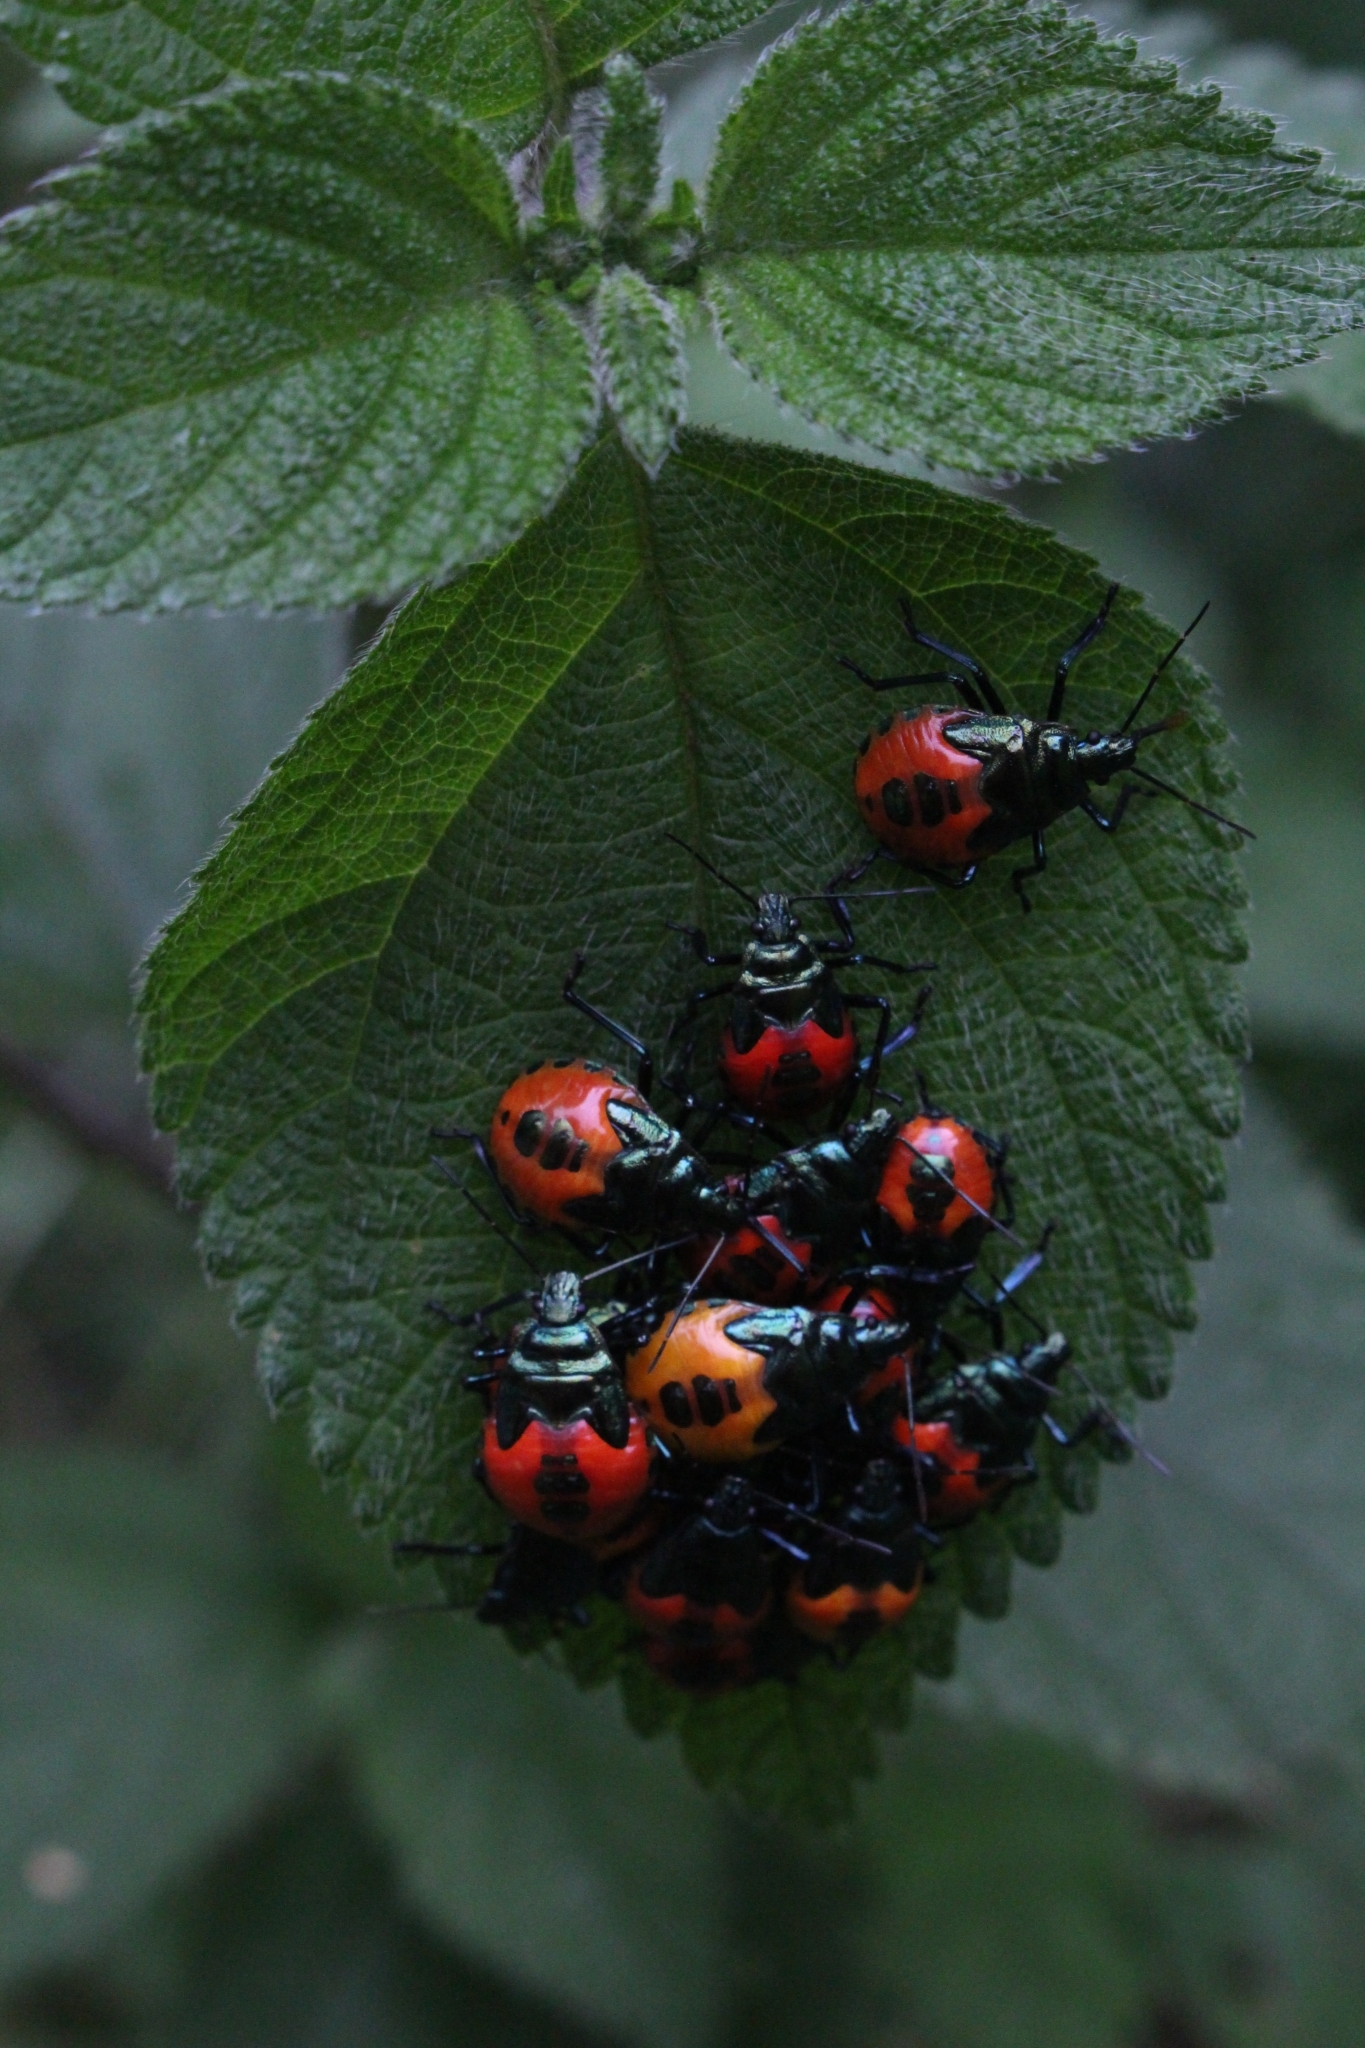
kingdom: Animalia
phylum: Arthropoda
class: Insecta
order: Hemiptera
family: Pentatomidae
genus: Euthyrhynchus
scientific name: Euthyrhynchus floridanus
